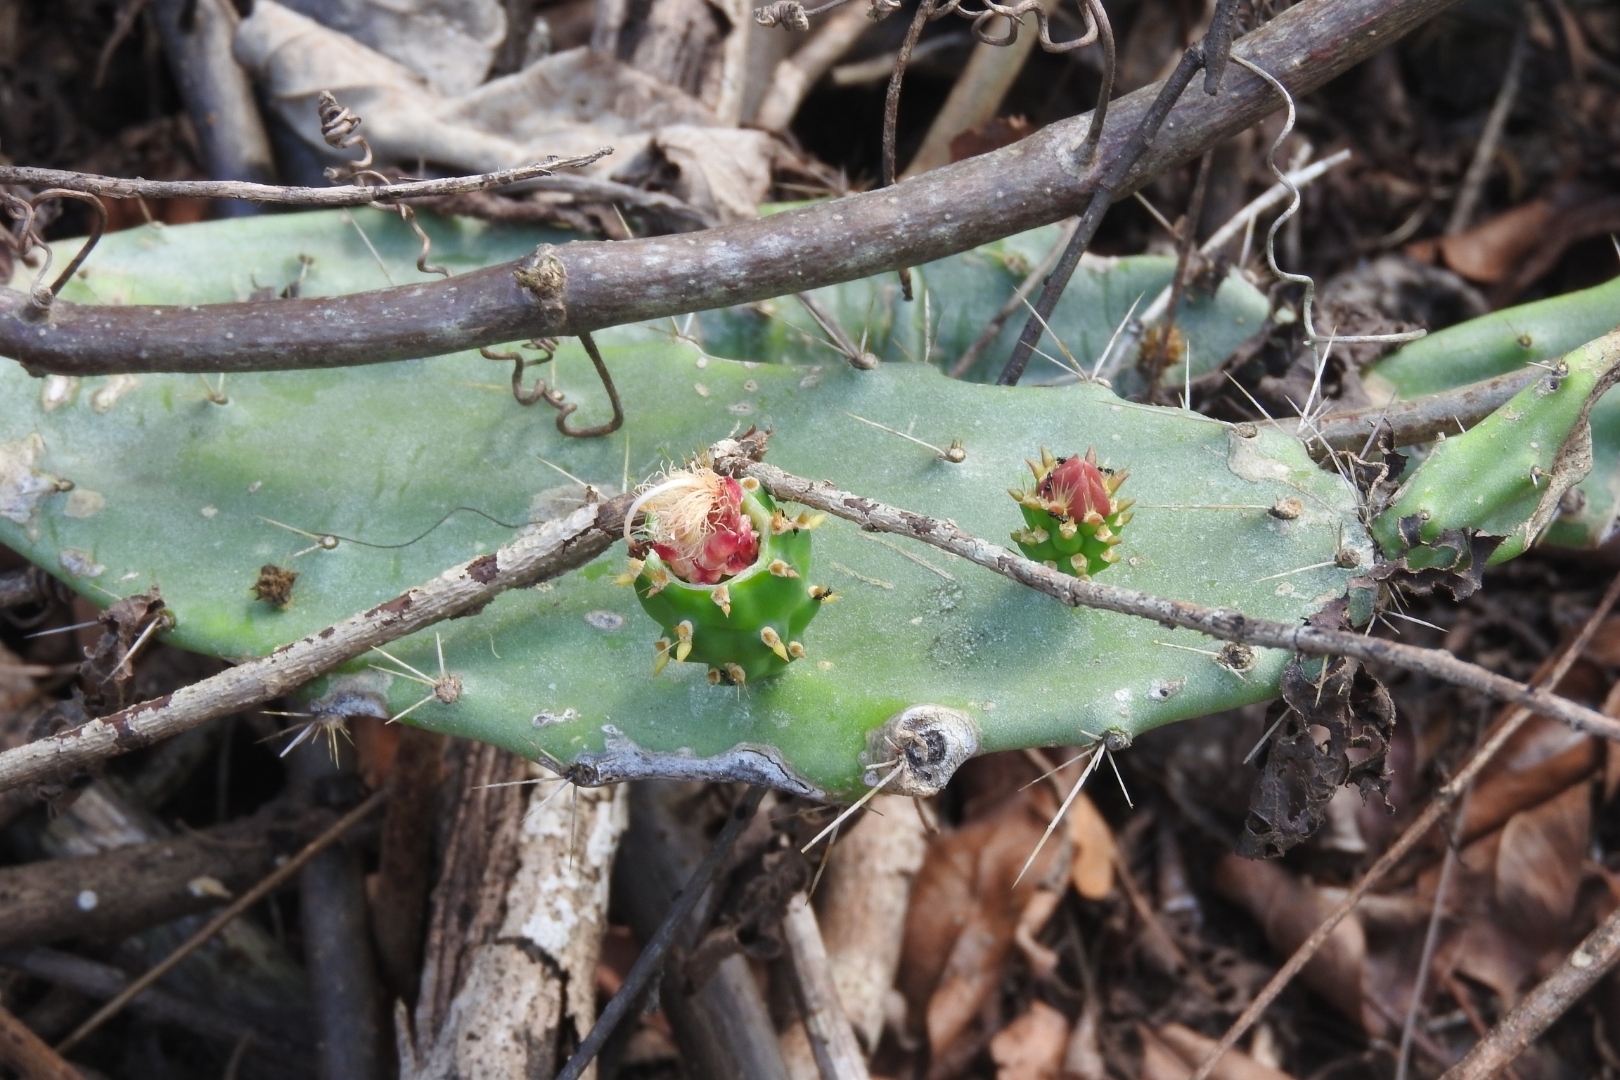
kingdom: Plantae
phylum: Tracheophyta
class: Magnoliopsida
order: Caryophyllales
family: Cactaceae
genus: Opuntia
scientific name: Opuntia inaperta
